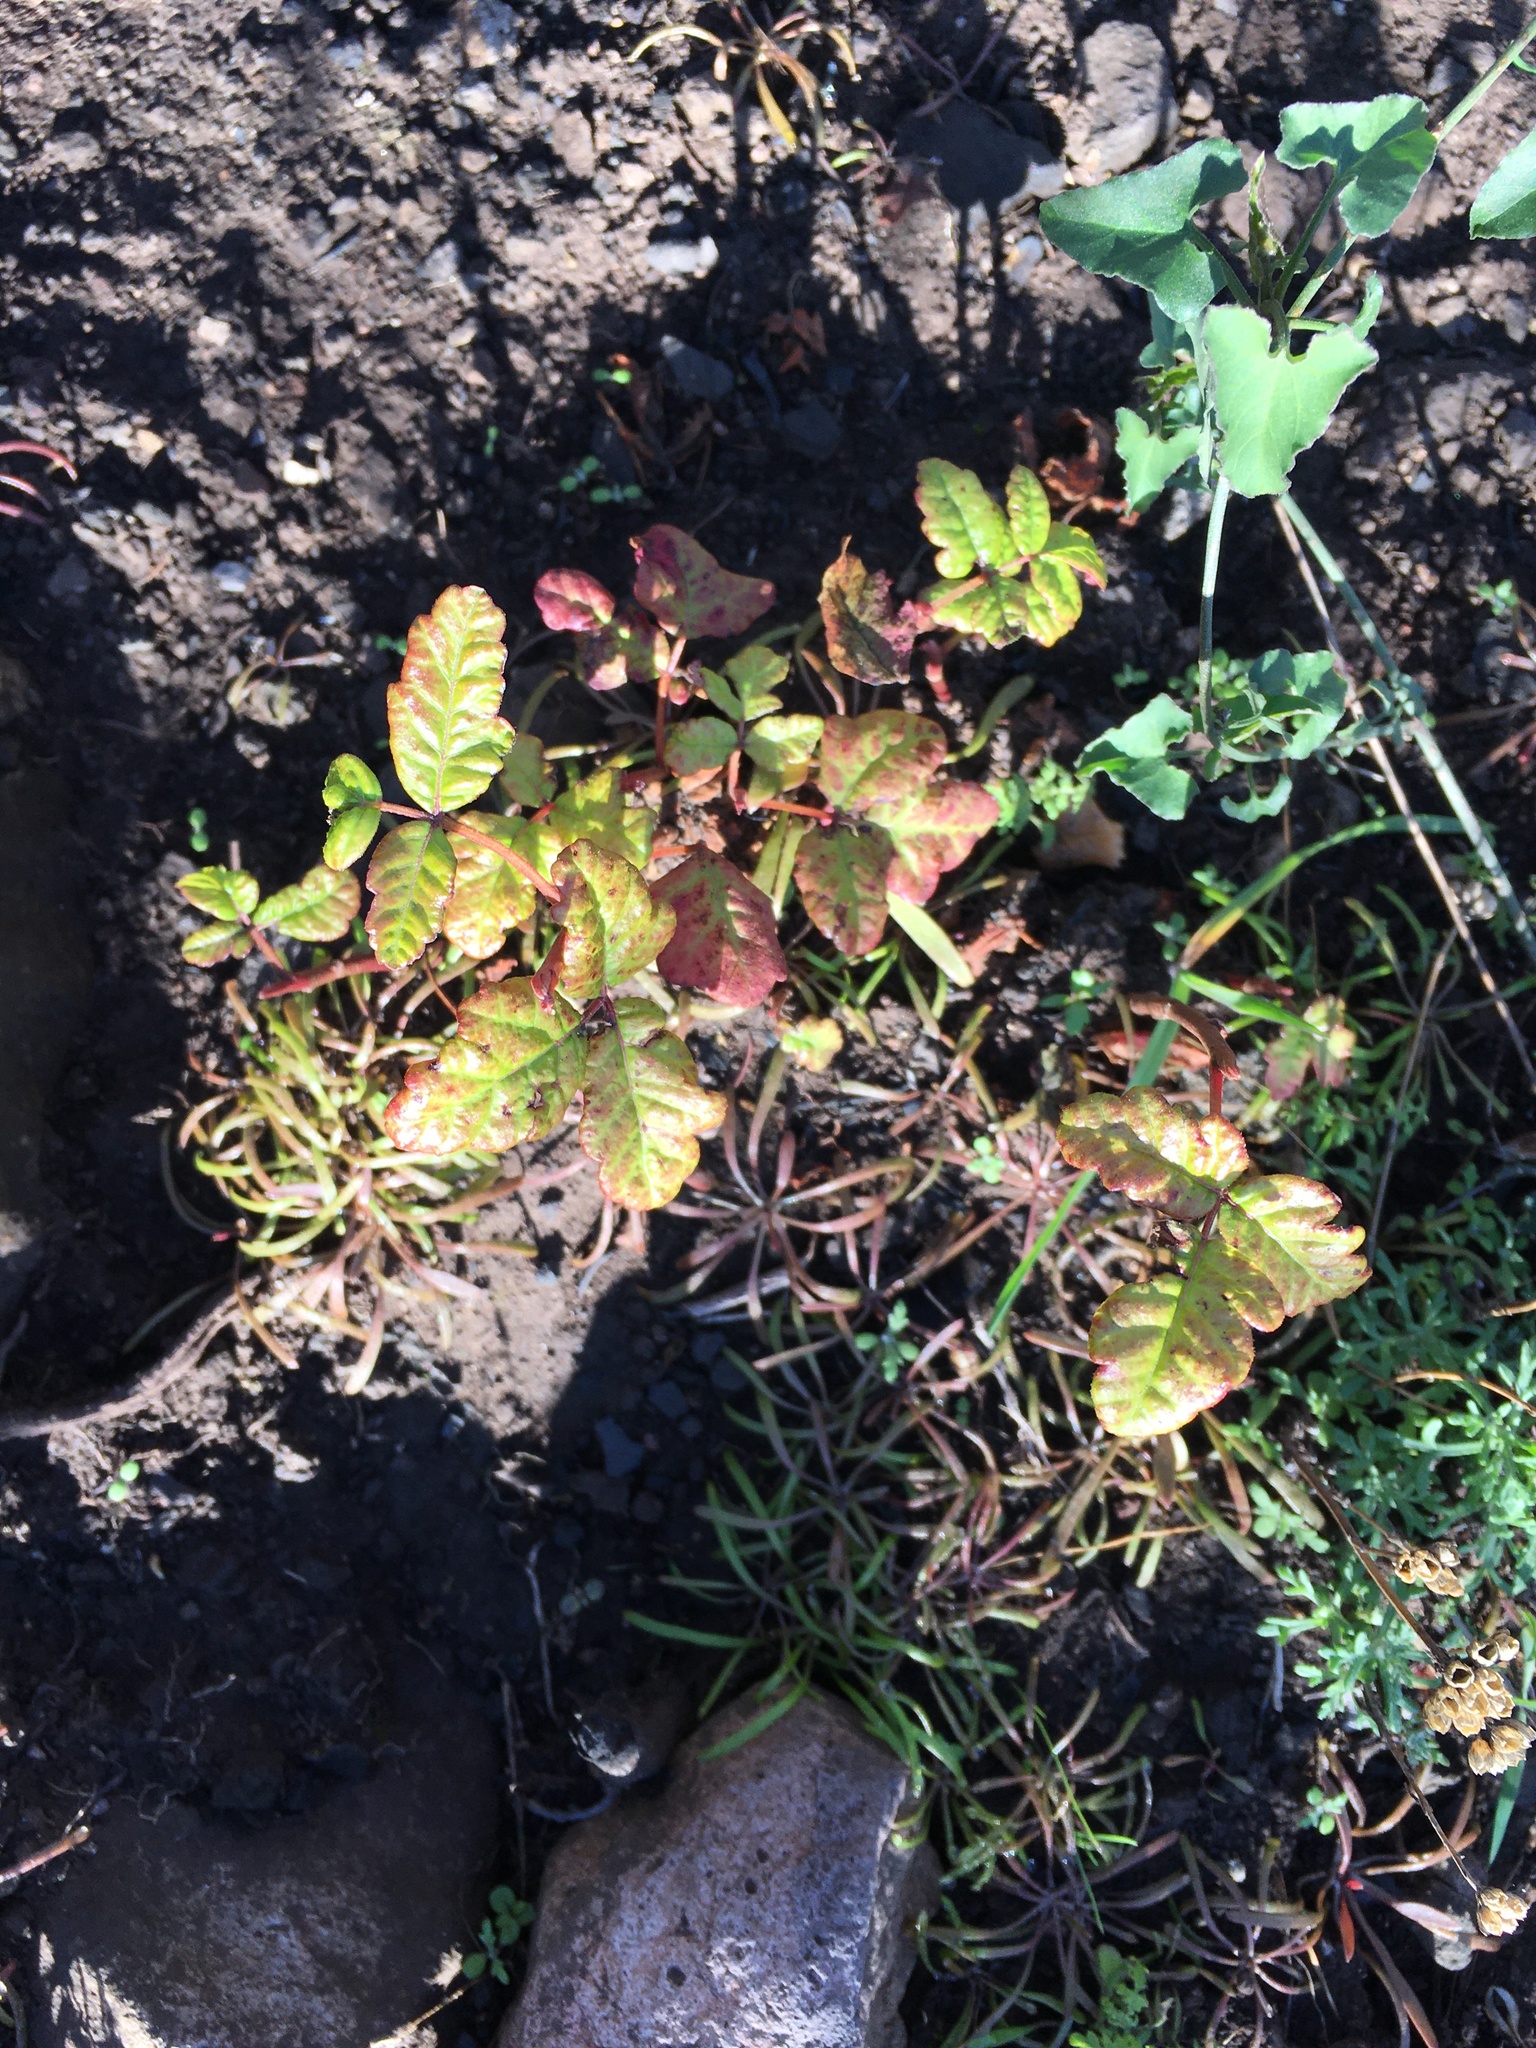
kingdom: Plantae
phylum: Tracheophyta
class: Magnoliopsida
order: Sapindales
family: Anacardiaceae
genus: Toxicodendron
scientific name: Toxicodendron diversilobum
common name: Pacific poison-oak
